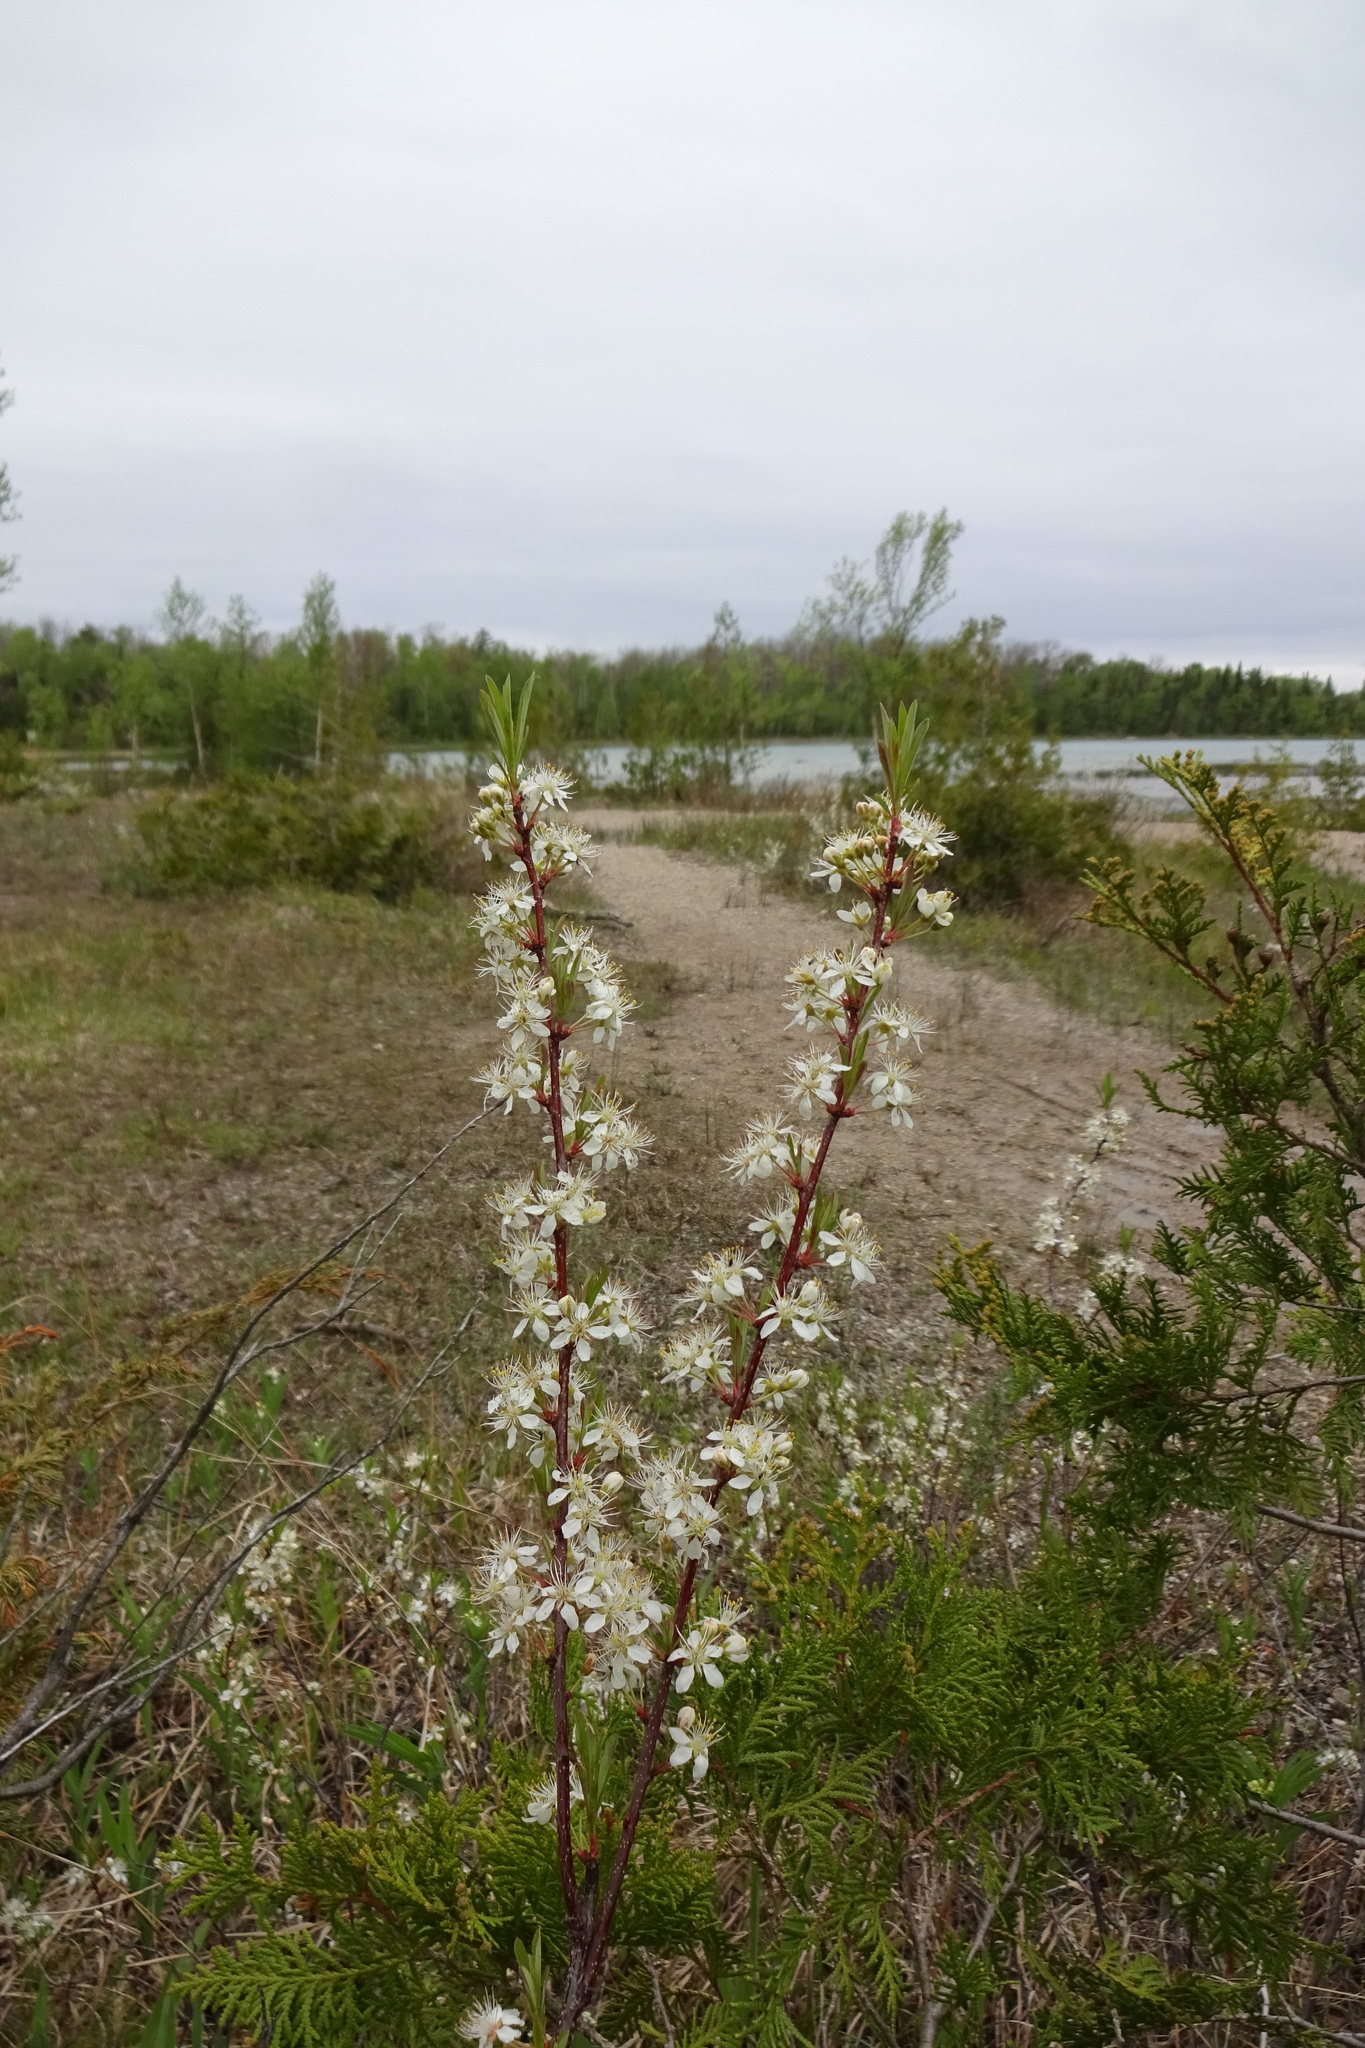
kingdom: Plantae
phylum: Tracheophyta
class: Magnoliopsida
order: Rosales
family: Rosaceae
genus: Prunus
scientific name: Prunus pumila
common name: Dwarf cherry
